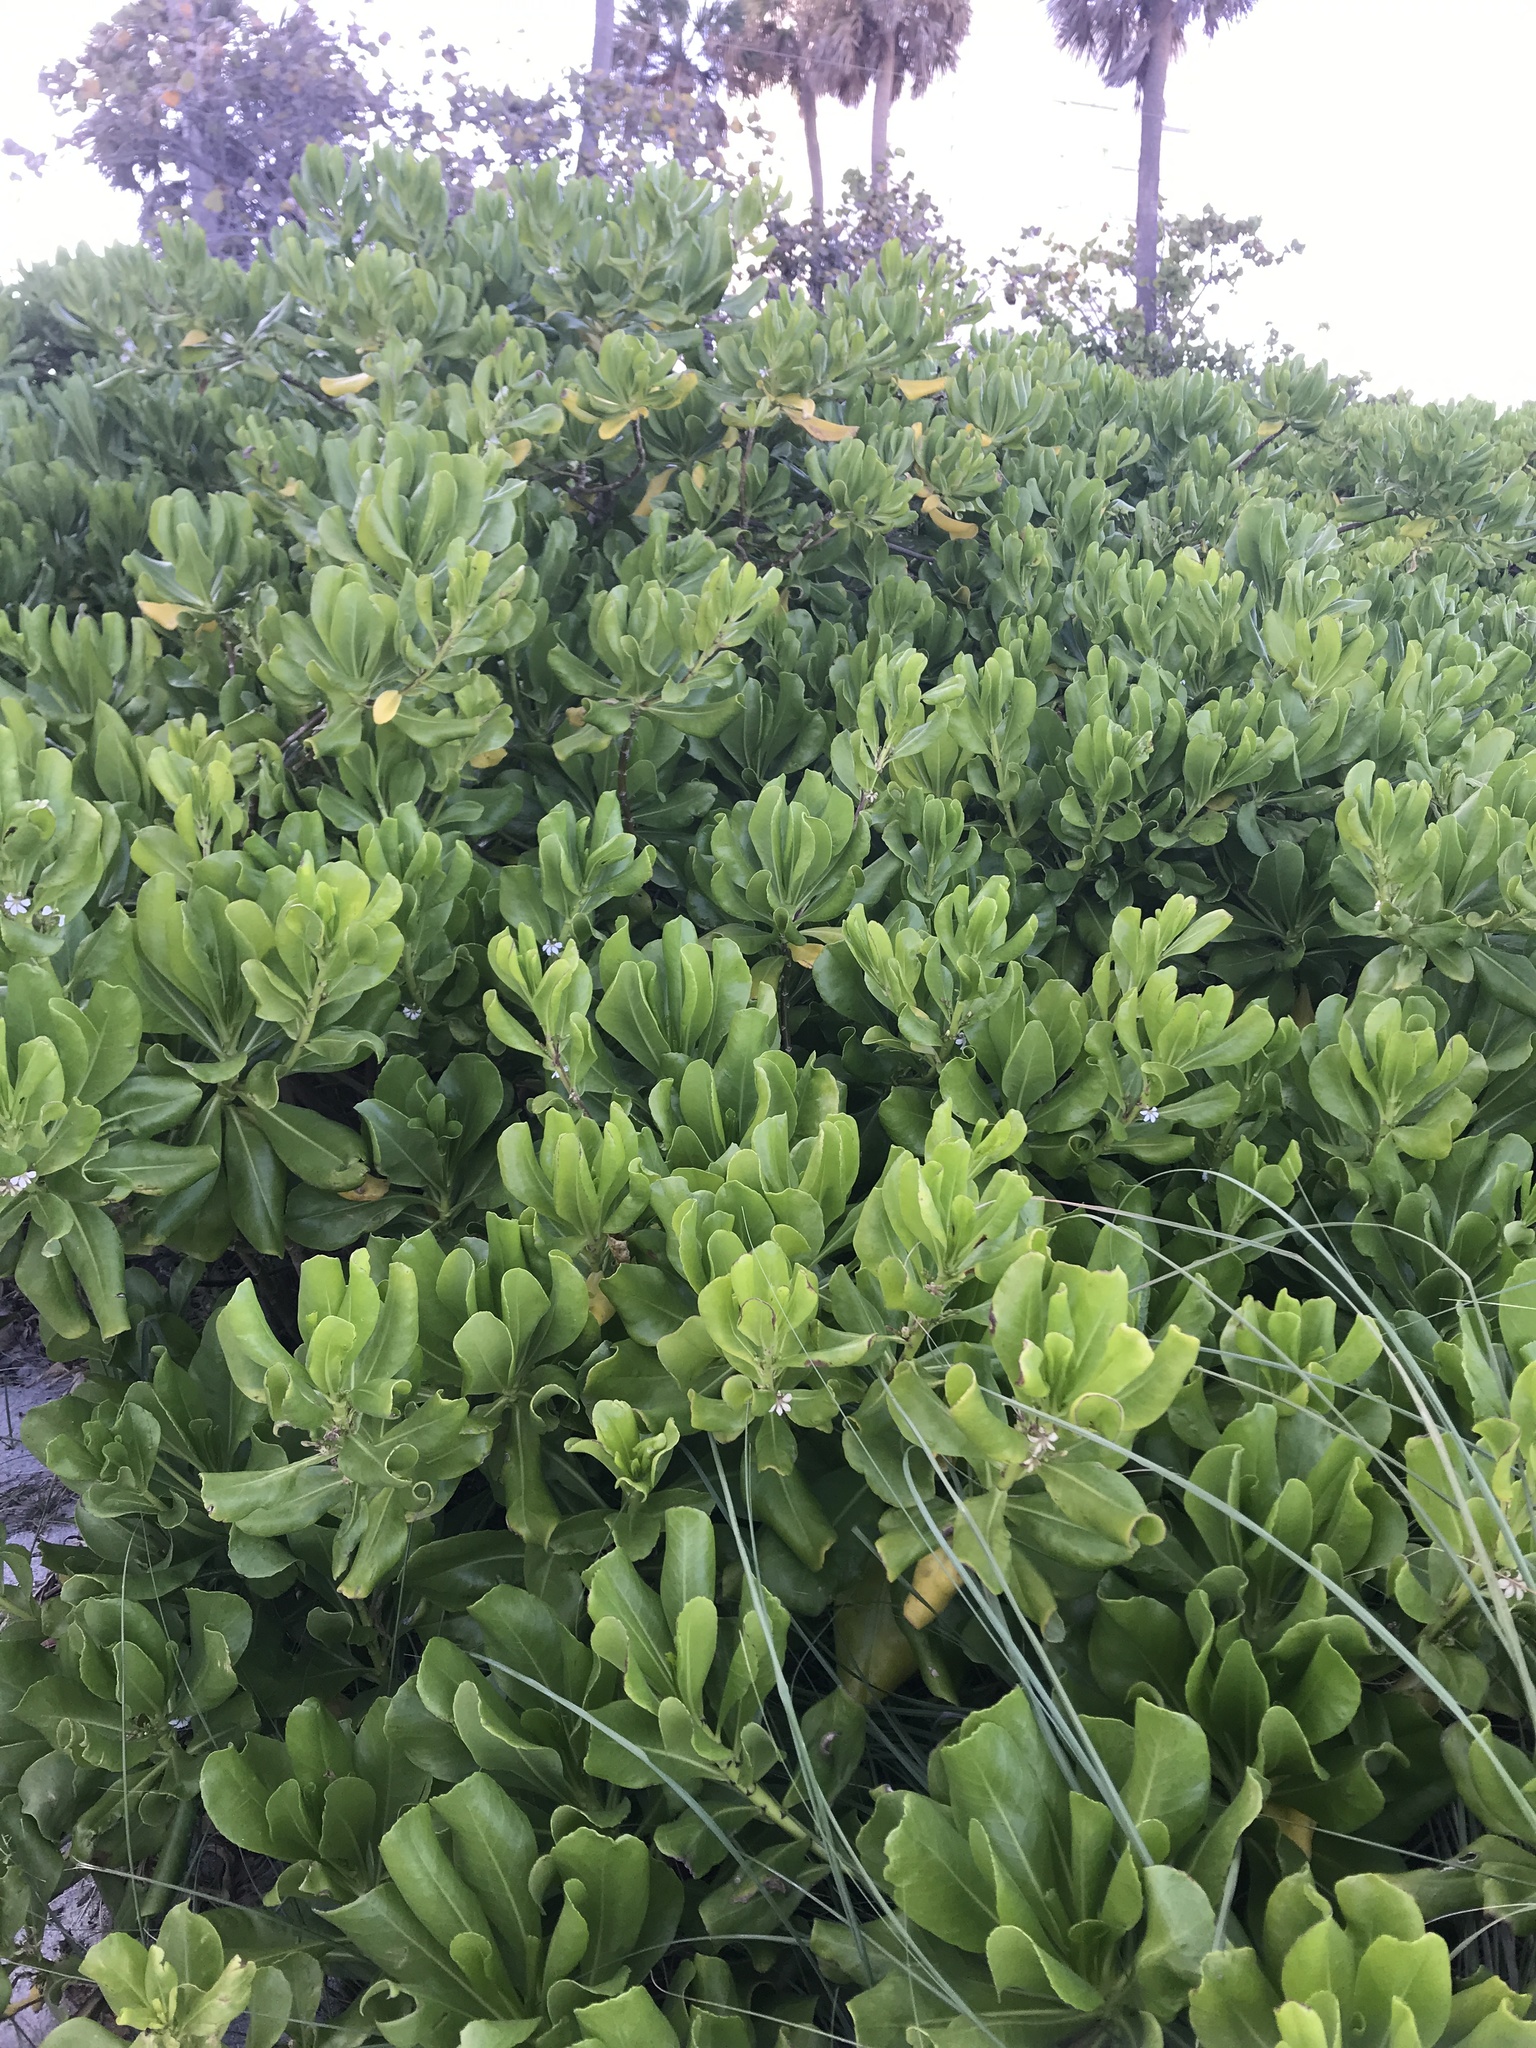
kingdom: Plantae
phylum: Tracheophyta
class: Magnoliopsida
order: Asterales
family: Goodeniaceae
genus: Scaevola
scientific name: Scaevola taccada
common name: Sea lettucetree
